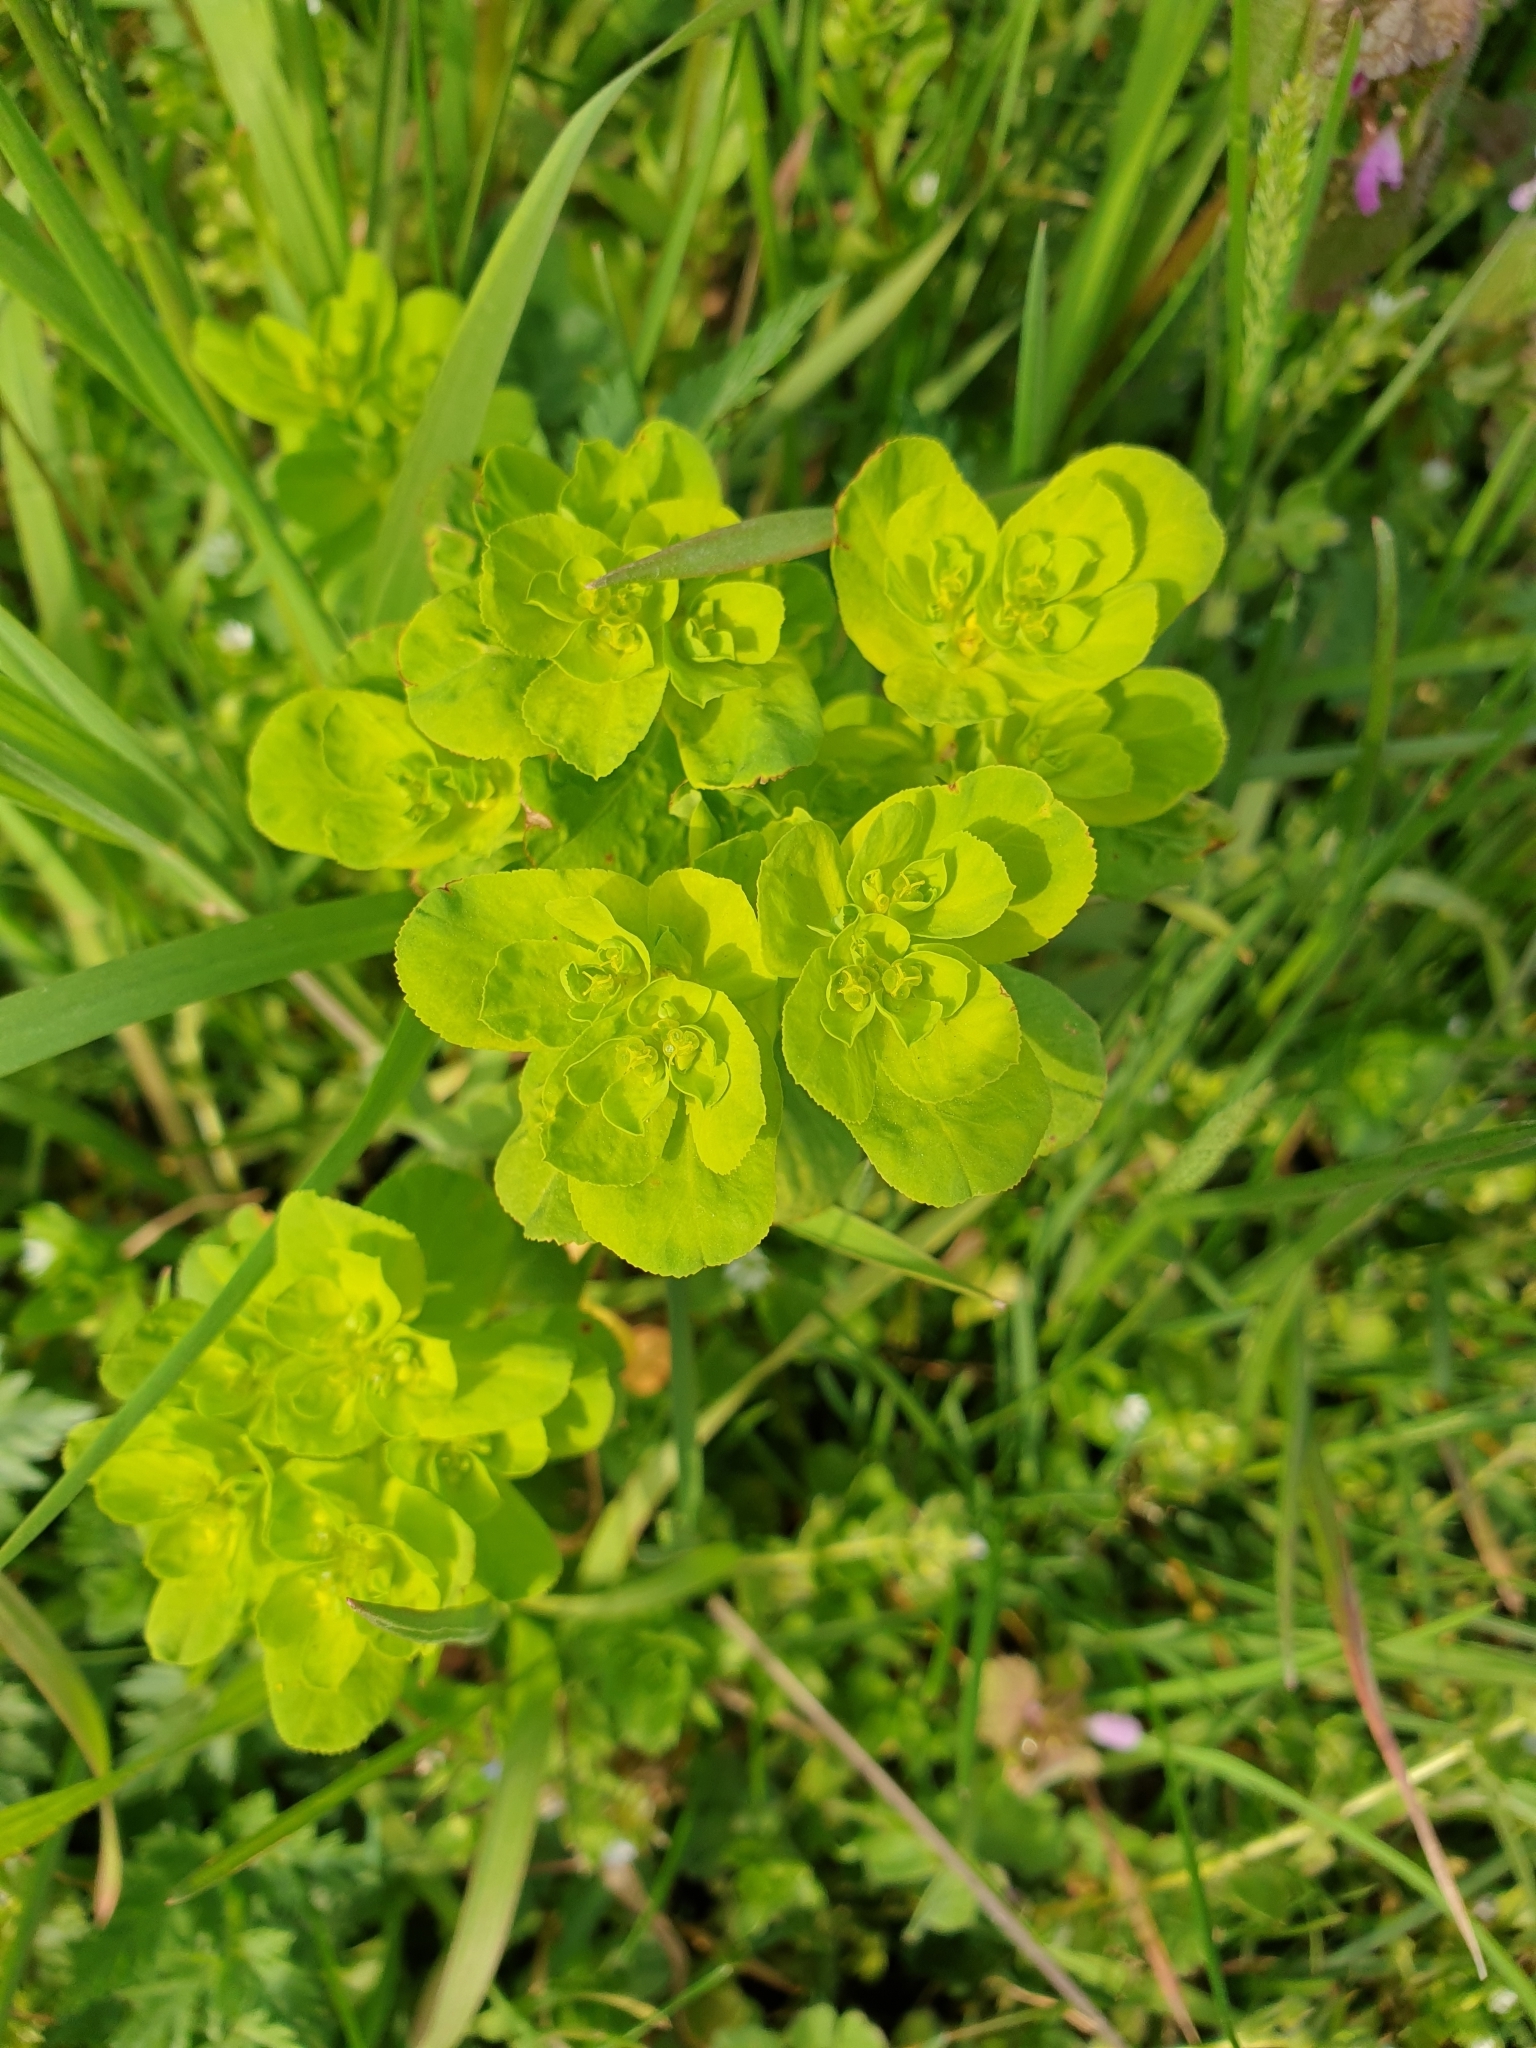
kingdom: Plantae
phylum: Tracheophyta
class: Magnoliopsida
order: Malpighiales
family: Euphorbiaceae
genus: Euphorbia
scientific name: Euphorbia helioscopia
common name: Sun spurge
